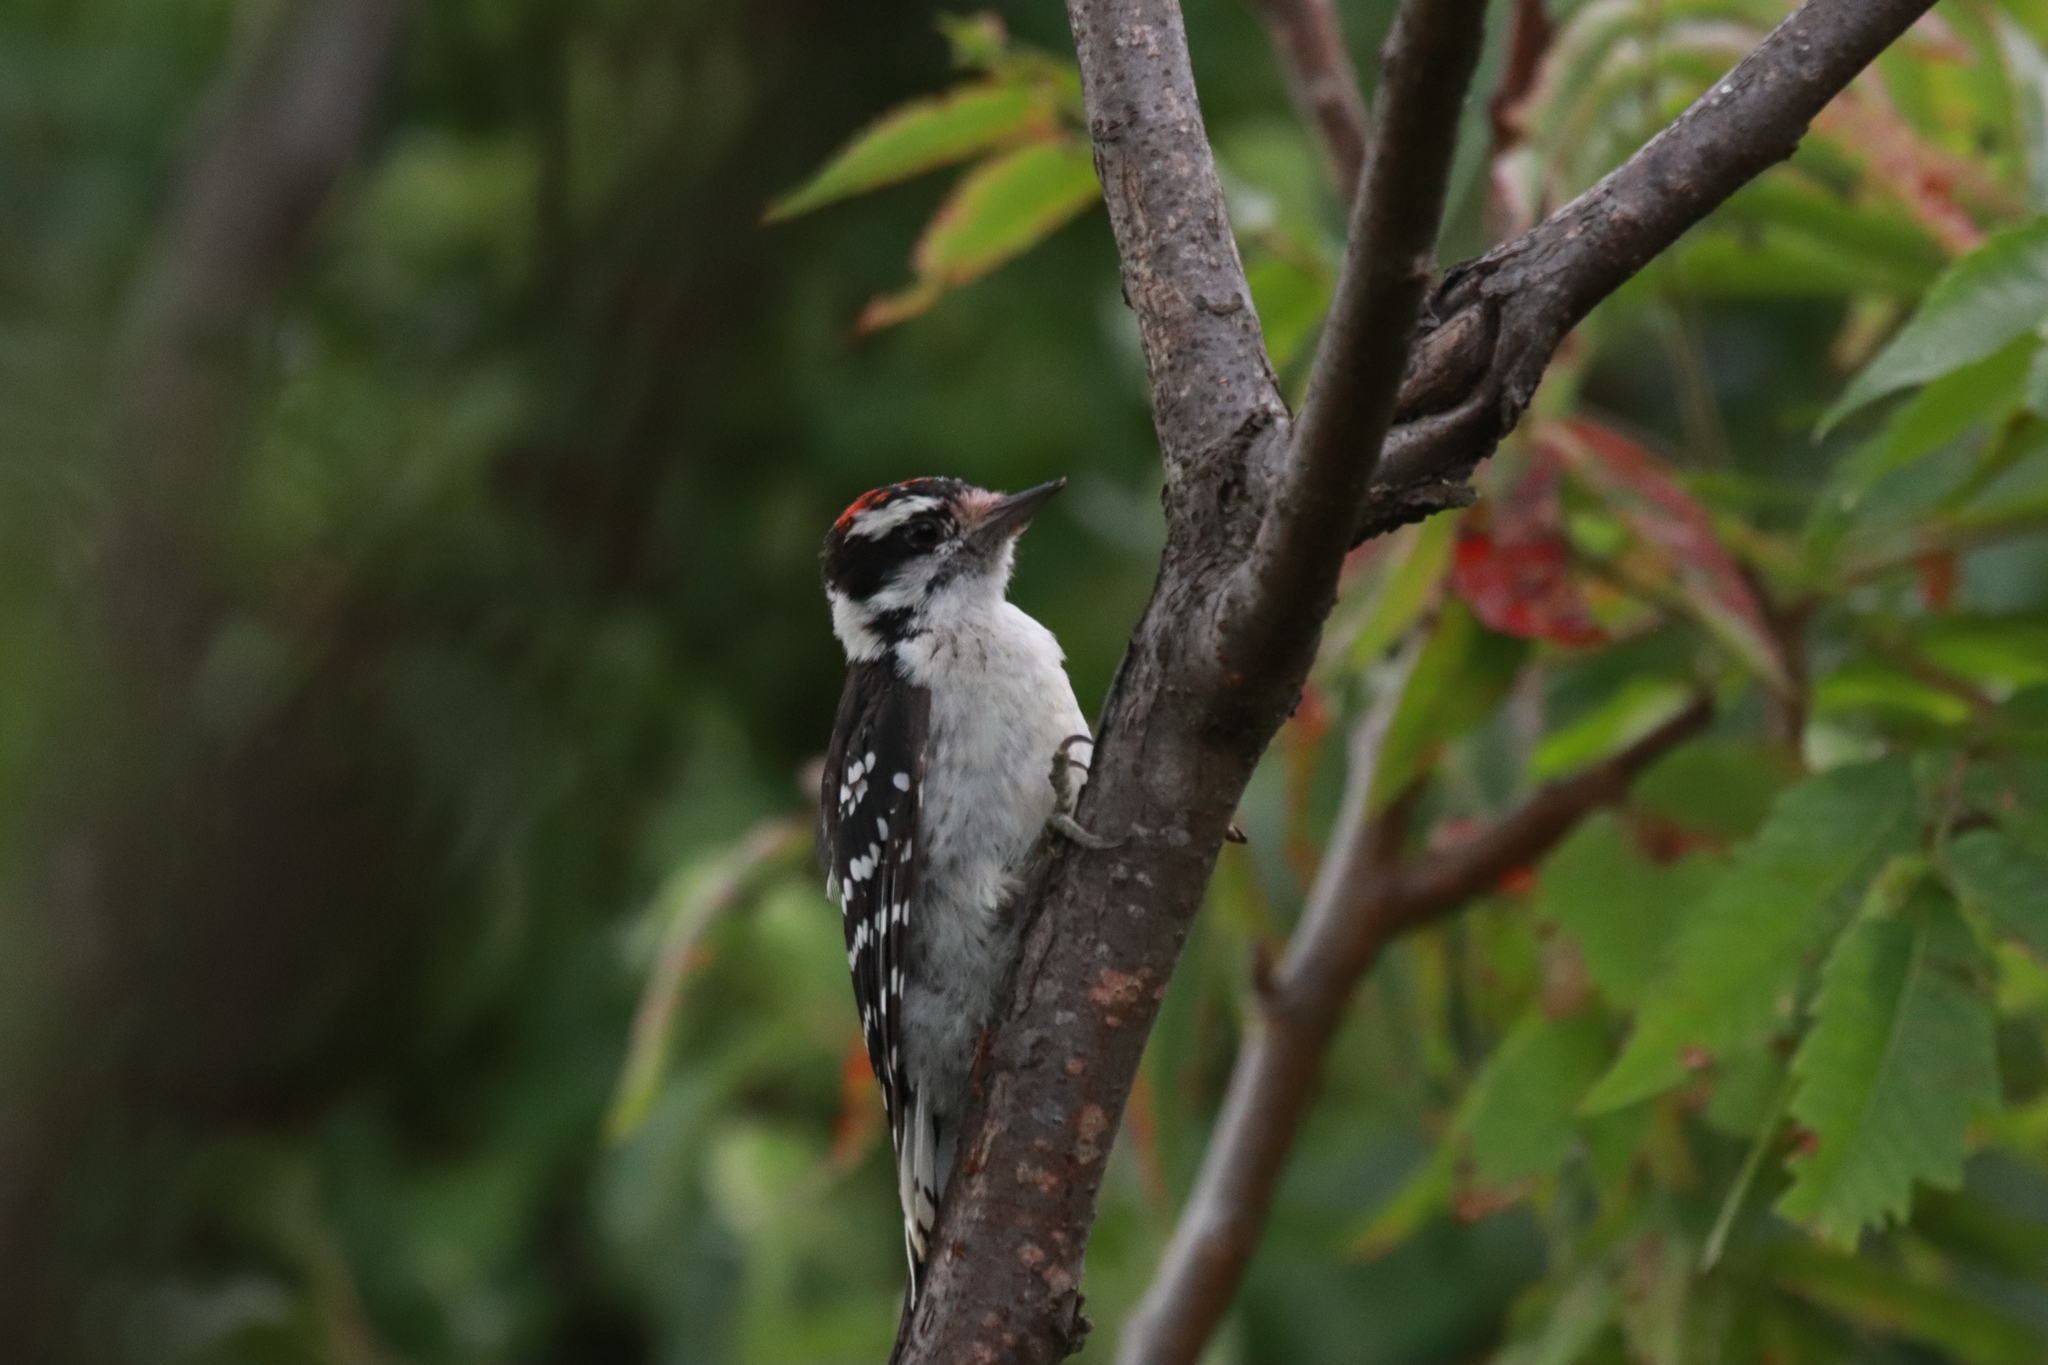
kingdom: Animalia
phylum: Chordata
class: Aves
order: Piciformes
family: Picidae
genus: Dryobates
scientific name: Dryobates pubescens
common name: Downy woodpecker
